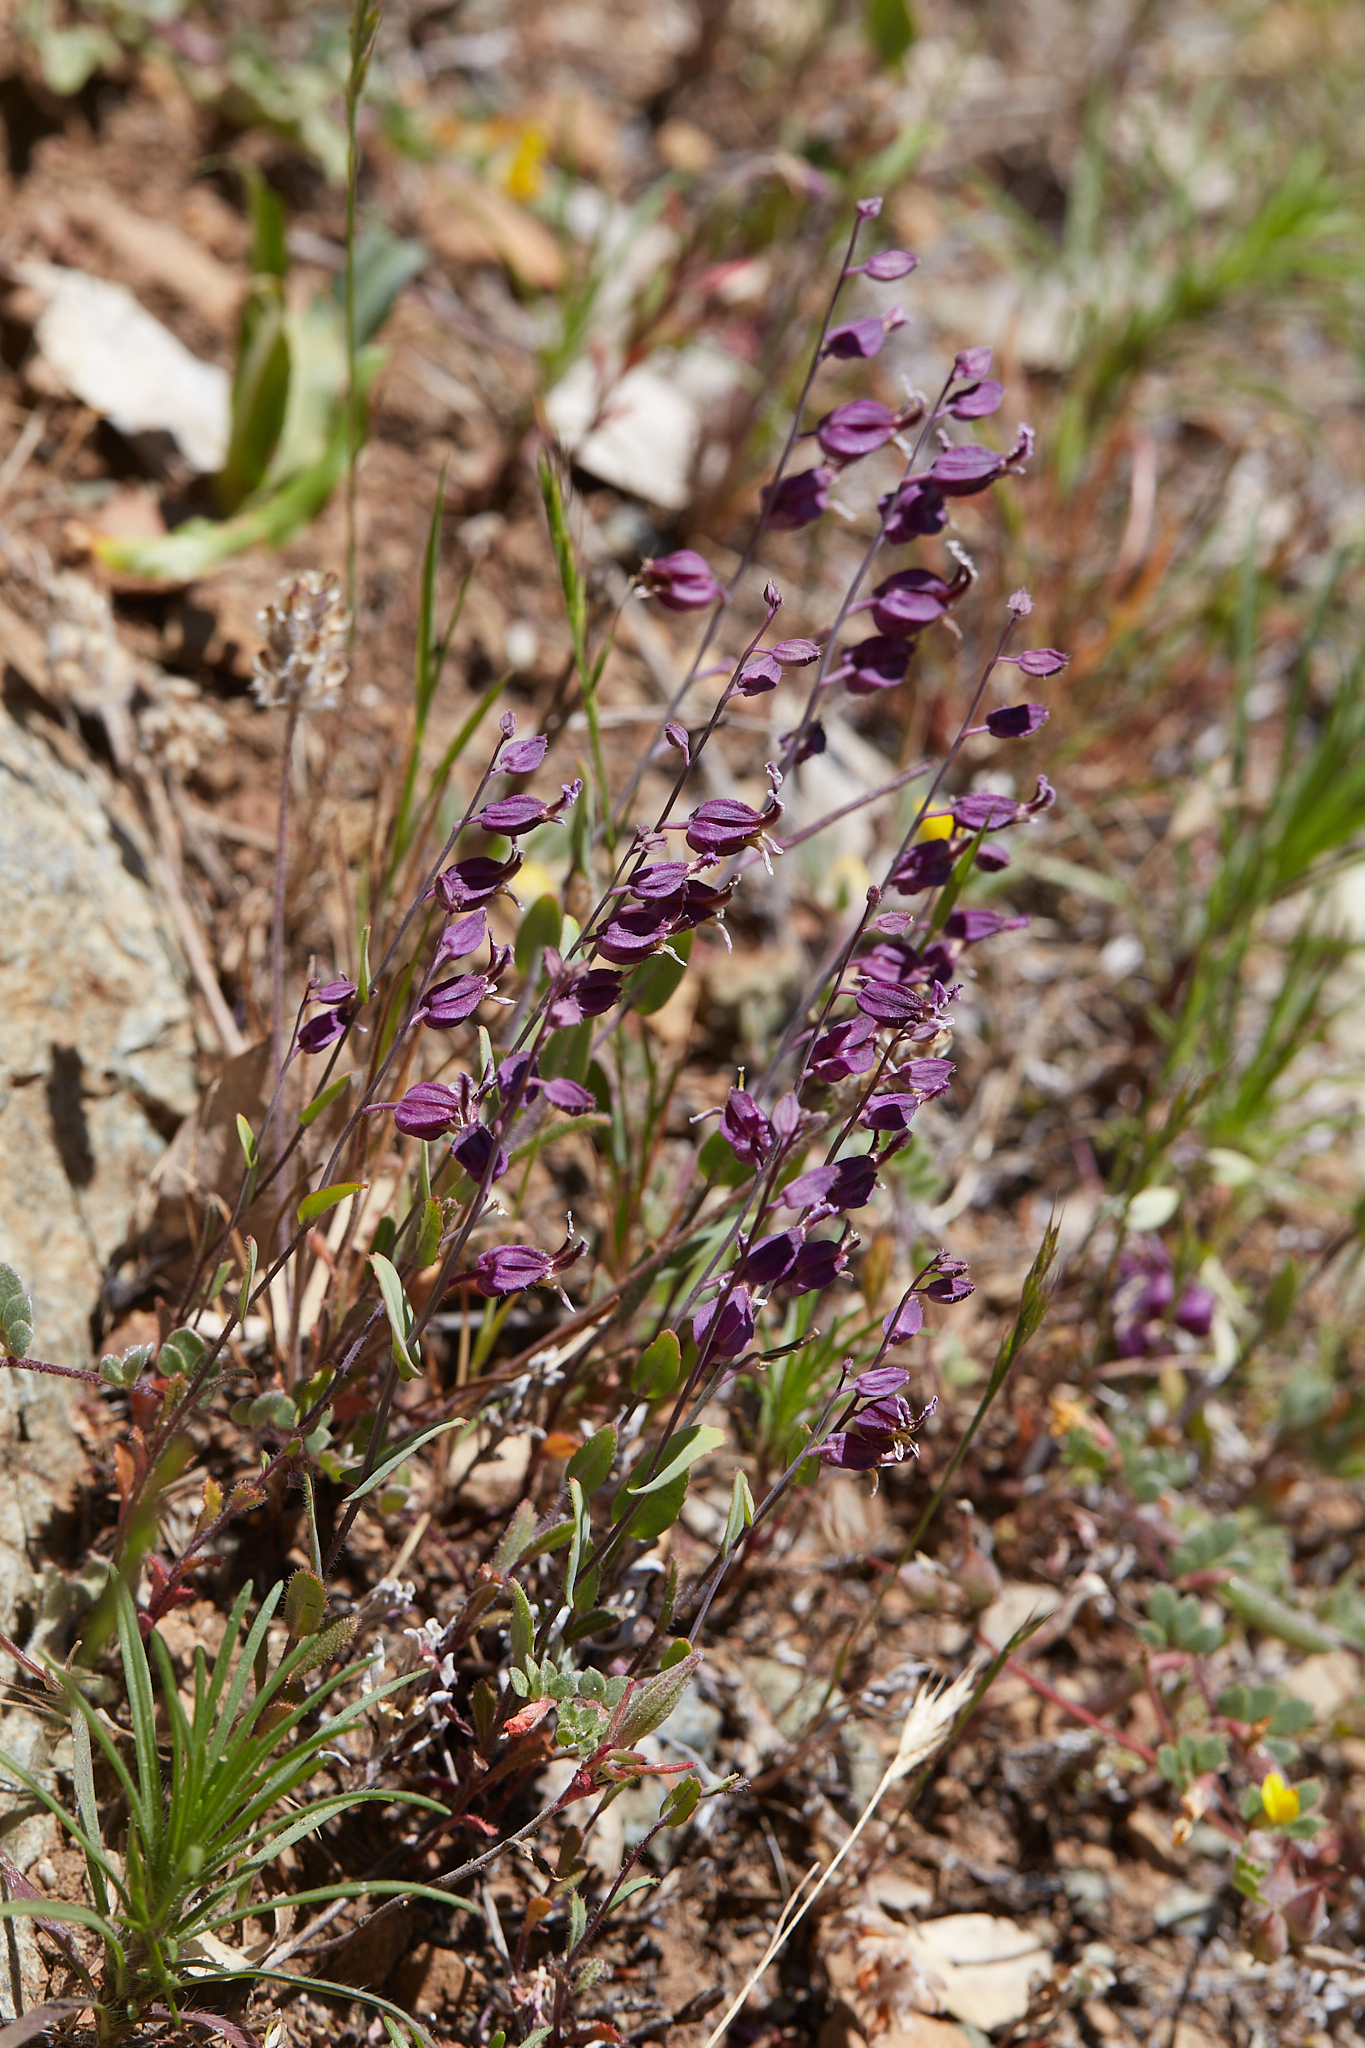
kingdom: Plantae
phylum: Tracheophyta
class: Magnoliopsida
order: Brassicales
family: Brassicaceae
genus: Streptanthus
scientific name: Streptanthus glandulosus
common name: Jewel-flower
